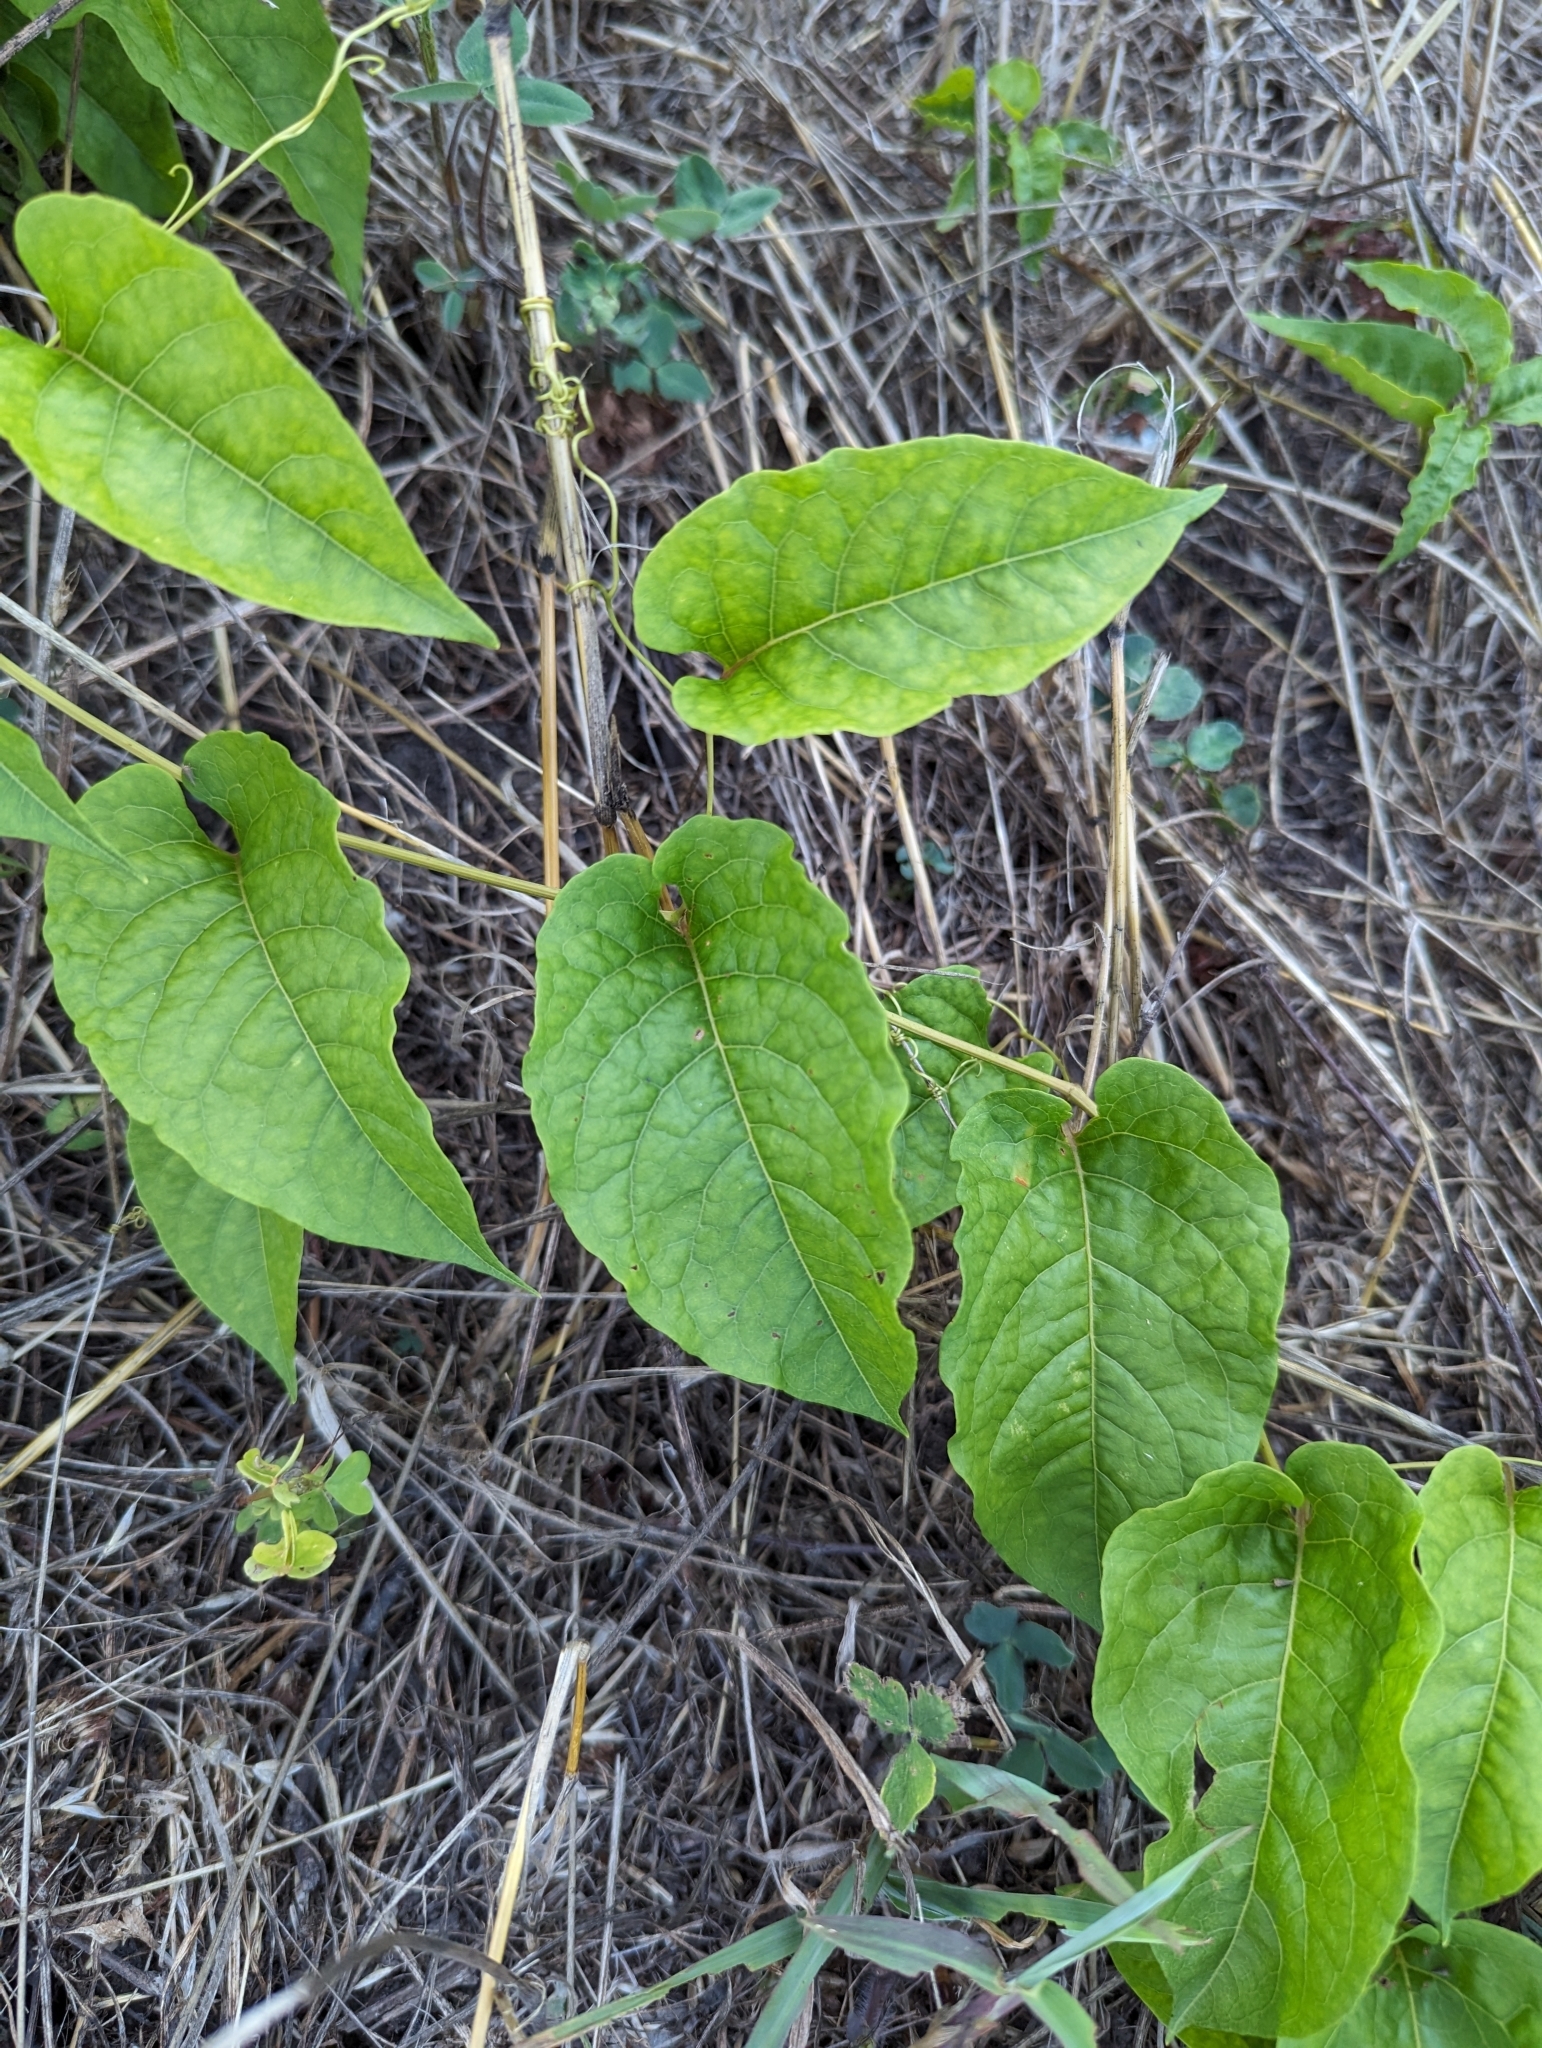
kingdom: Plantae
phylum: Tracheophyta
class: Magnoliopsida
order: Caryophyllales
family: Polygonaceae
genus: Brunnichia
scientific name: Brunnichia ovata
